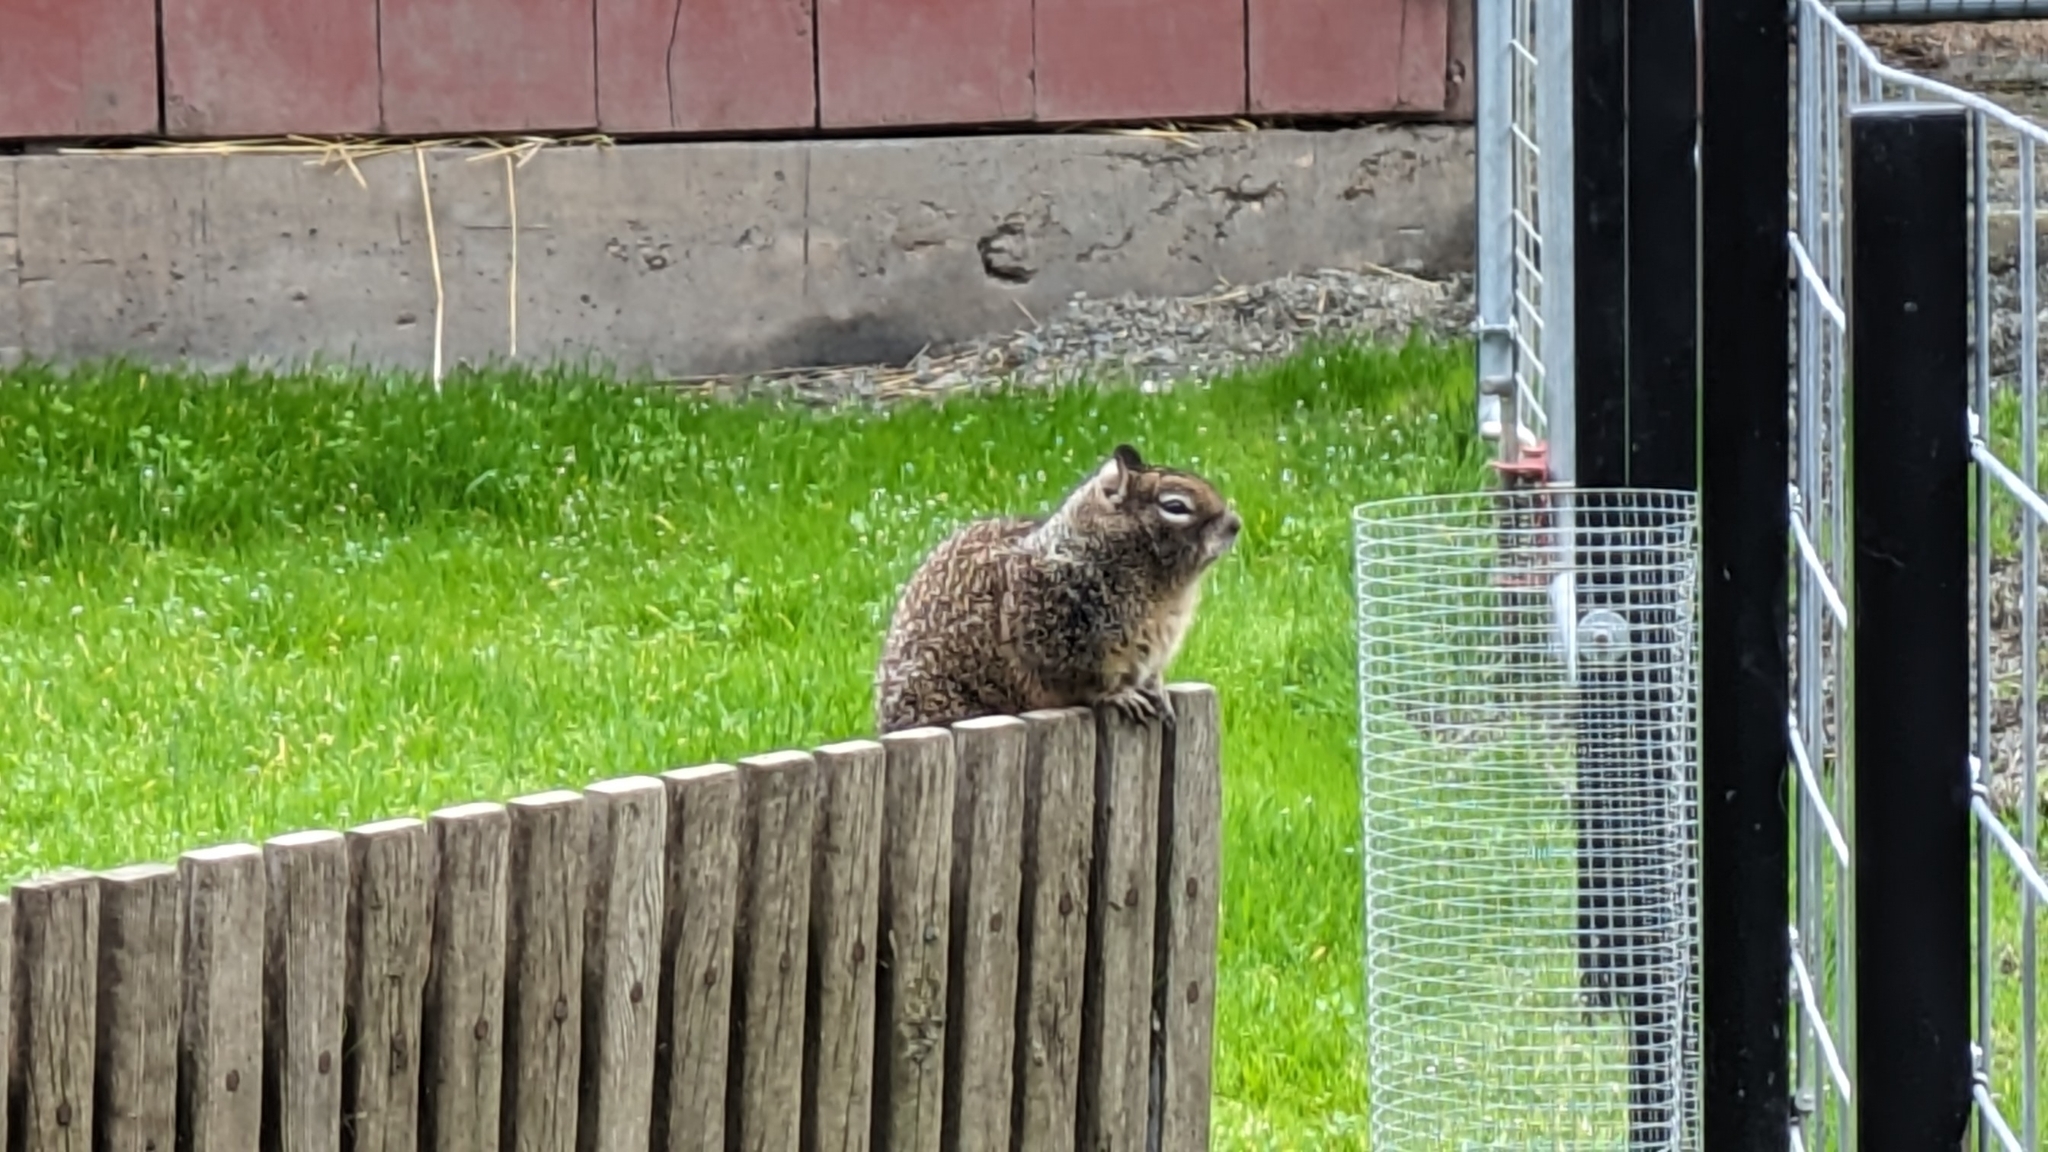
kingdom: Animalia
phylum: Chordata
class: Mammalia
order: Rodentia
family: Sciuridae
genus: Otospermophilus
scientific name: Otospermophilus beecheyi
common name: California ground squirrel
